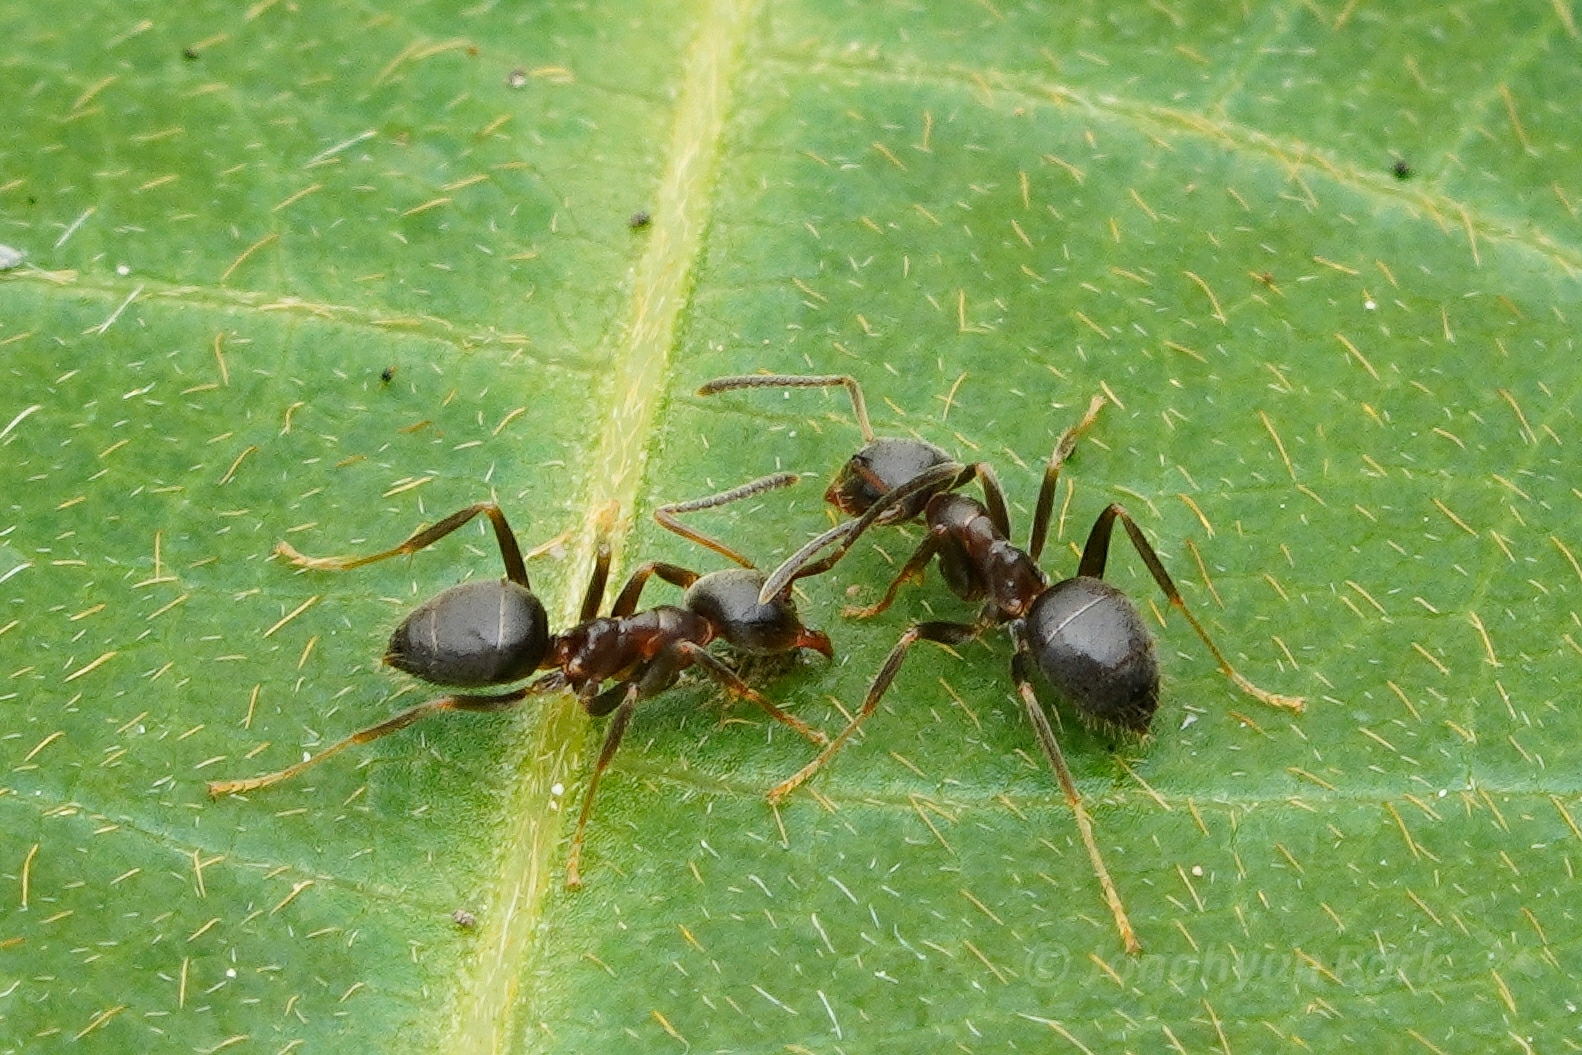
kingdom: Animalia
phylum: Arthropoda
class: Insecta
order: Hymenoptera
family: Formicidae
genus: Lasius
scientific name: Lasius japonicus
